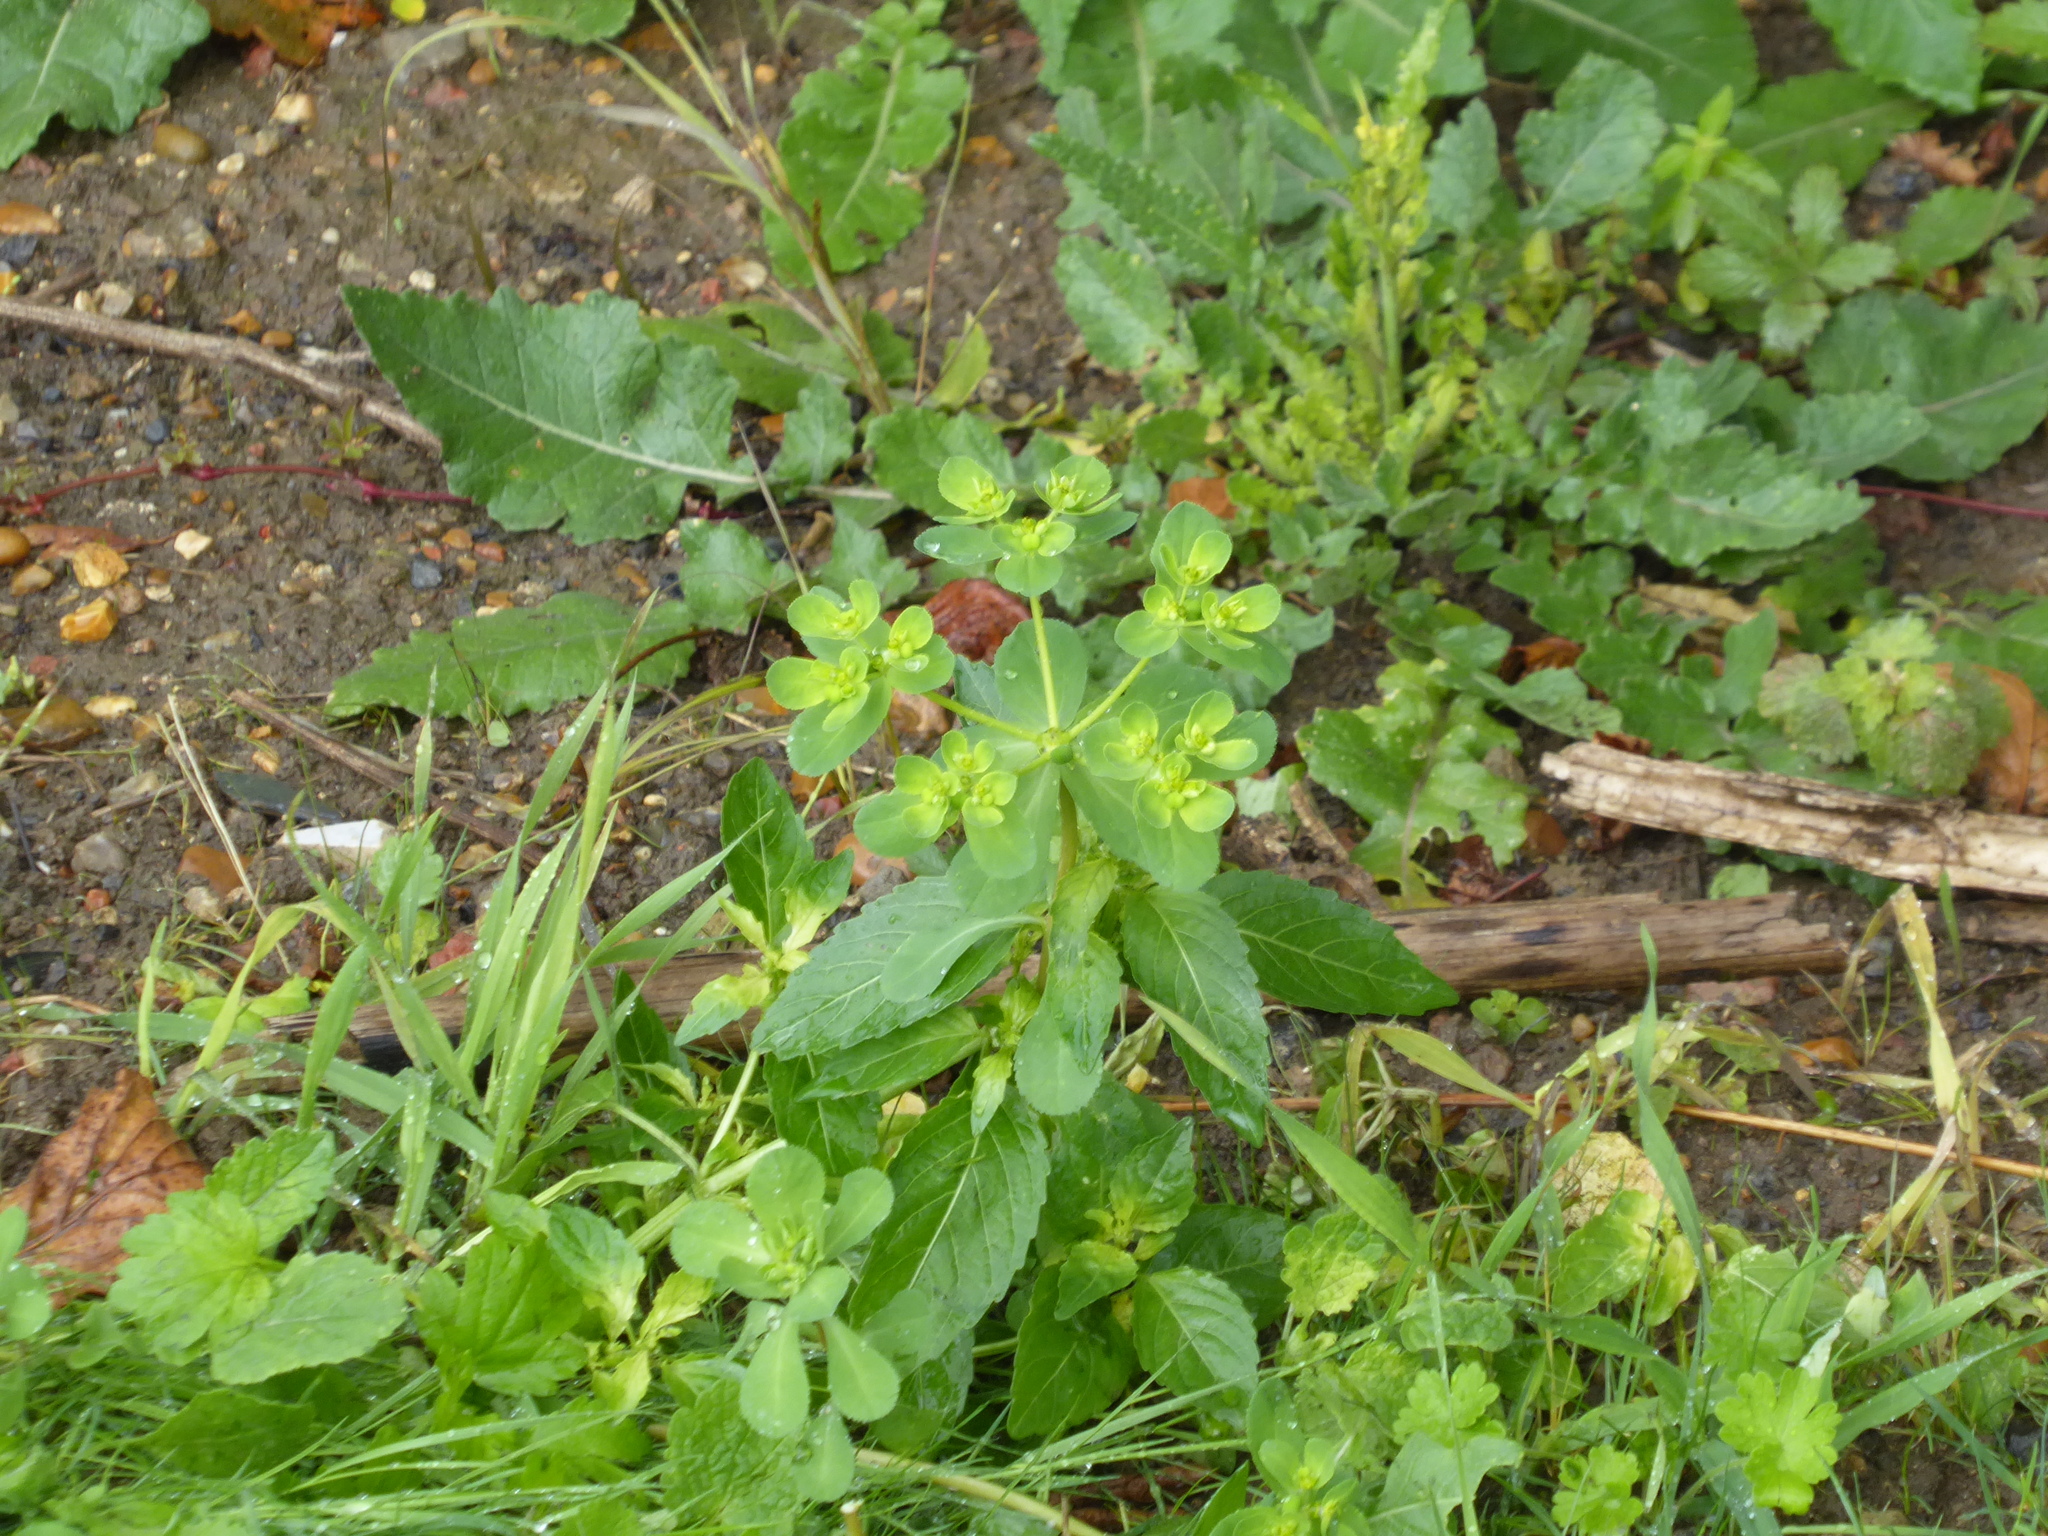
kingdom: Plantae
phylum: Tracheophyta
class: Magnoliopsida
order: Malpighiales
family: Euphorbiaceae
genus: Euphorbia
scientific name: Euphorbia helioscopia
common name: Sun spurge
